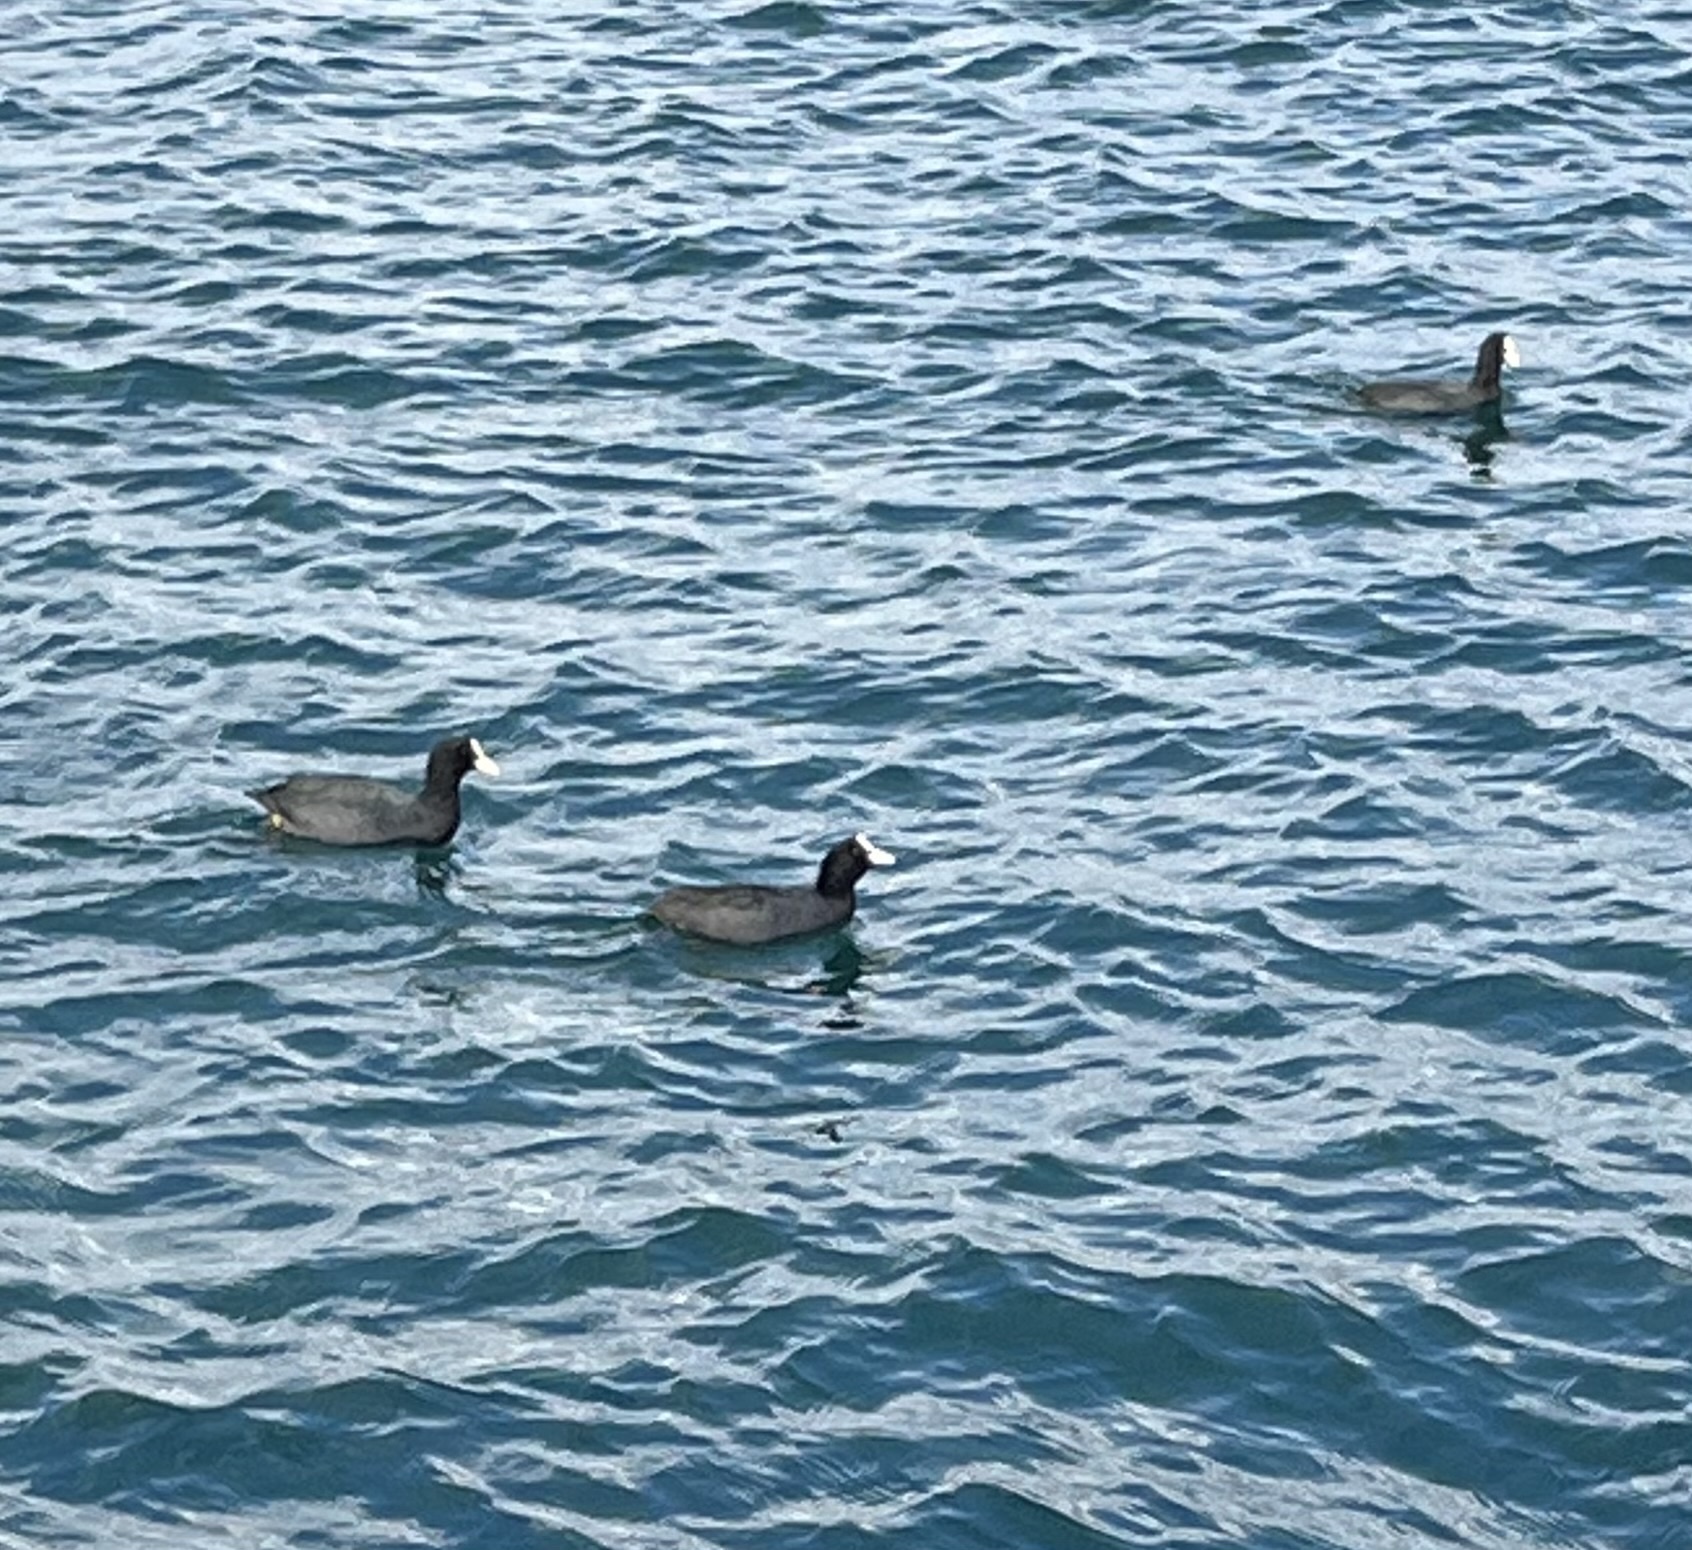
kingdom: Animalia
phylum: Chordata
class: Aves
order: Gruiformes
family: Rallidae
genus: Fulica
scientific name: Fulica atra
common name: Eurasian coot
